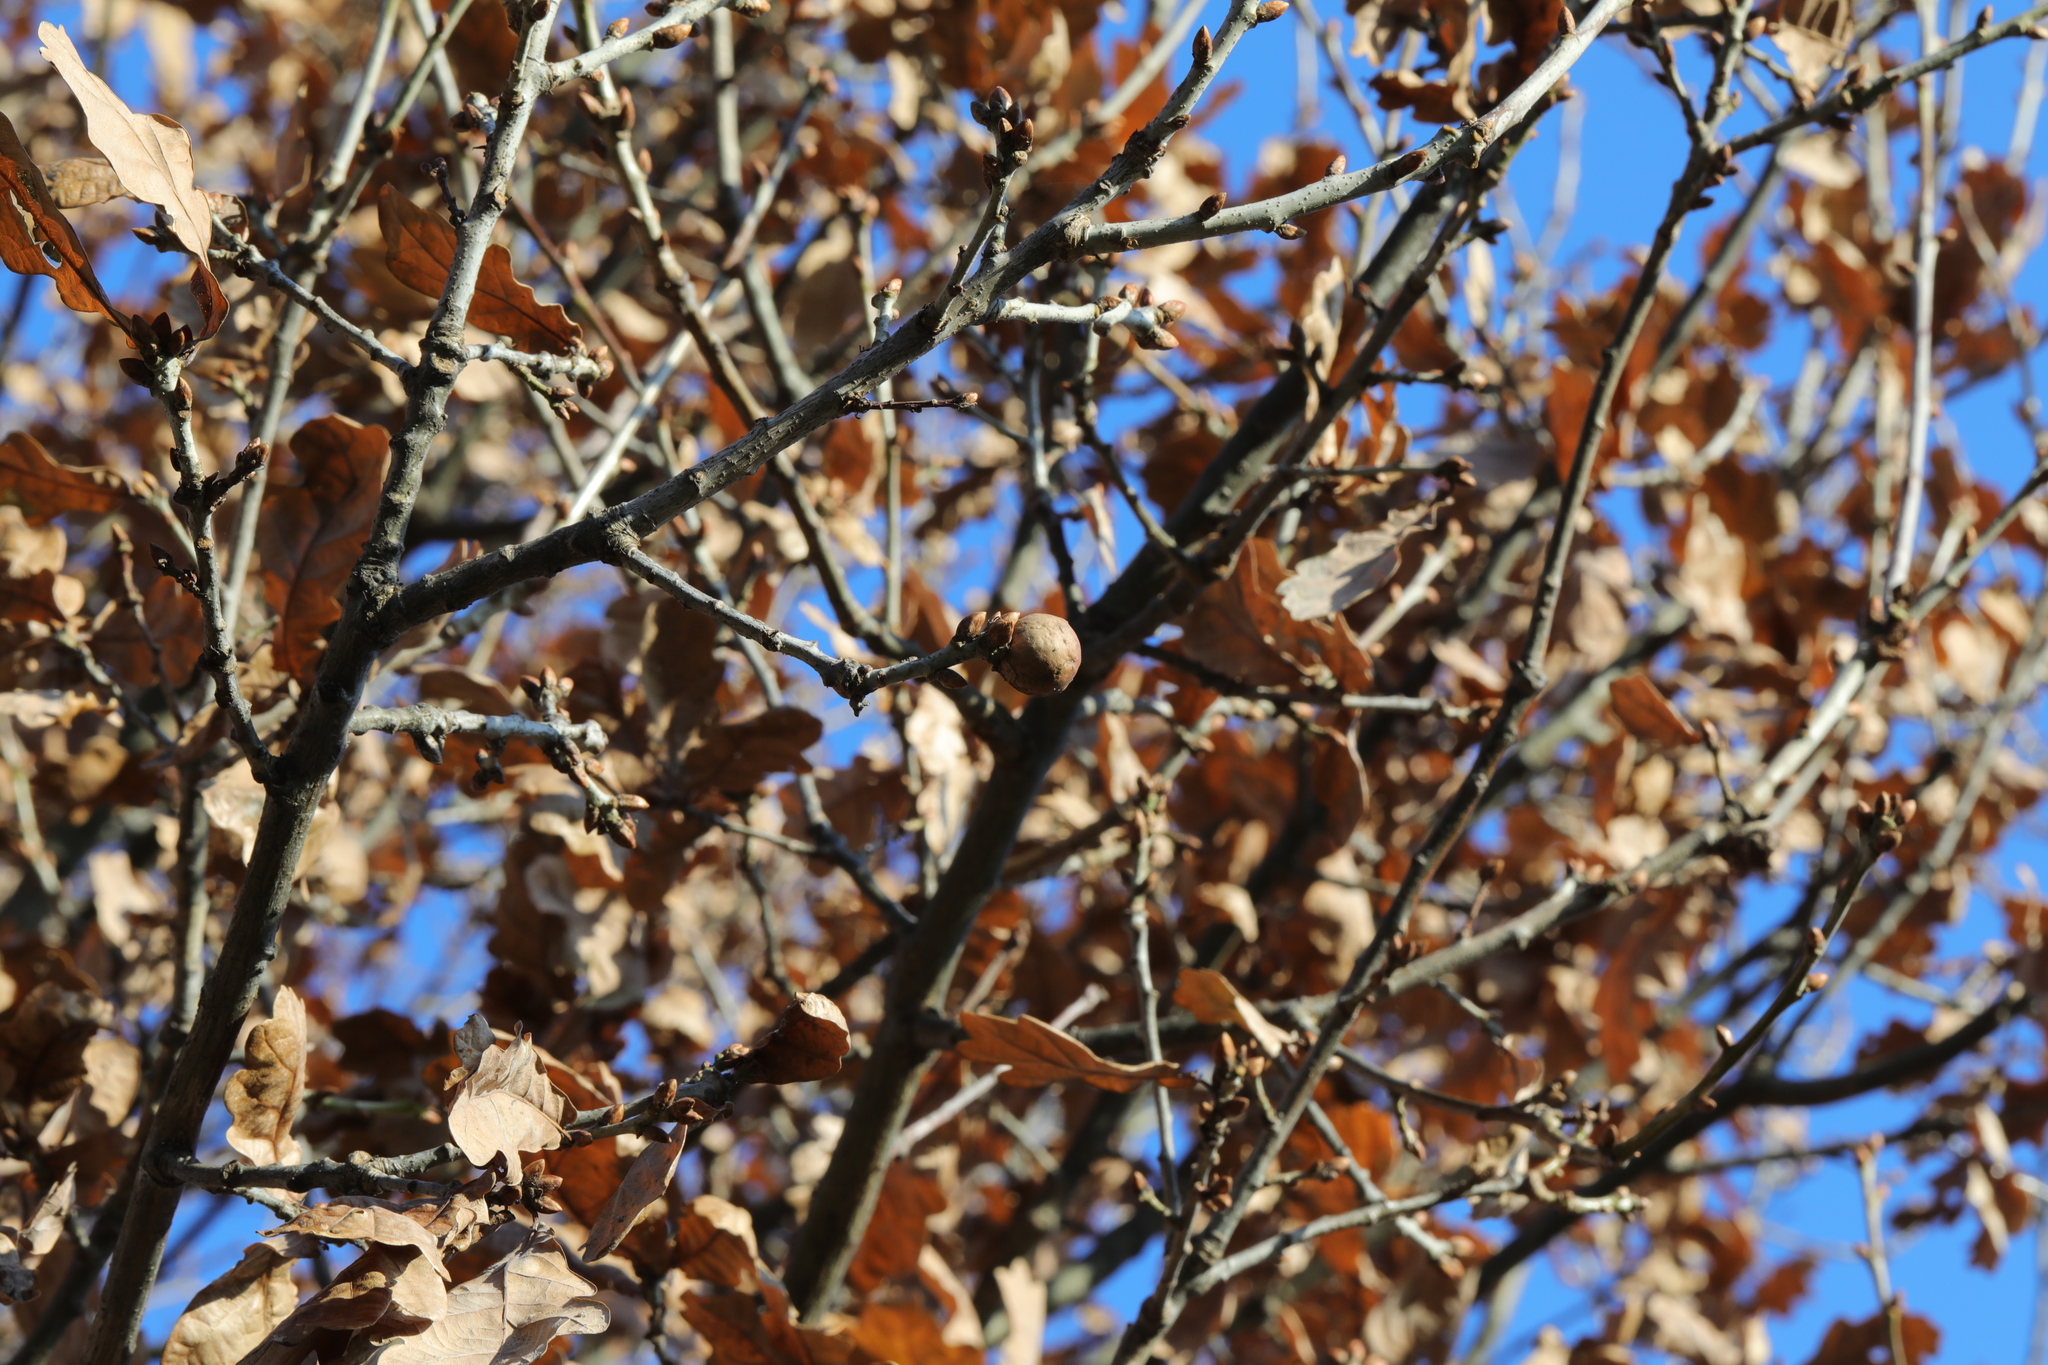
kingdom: Animalia
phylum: Arthropoda
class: Insecta
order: Hymenoptera
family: Cynipidae
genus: Andricus
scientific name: Andricus kollari
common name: Marble gall
